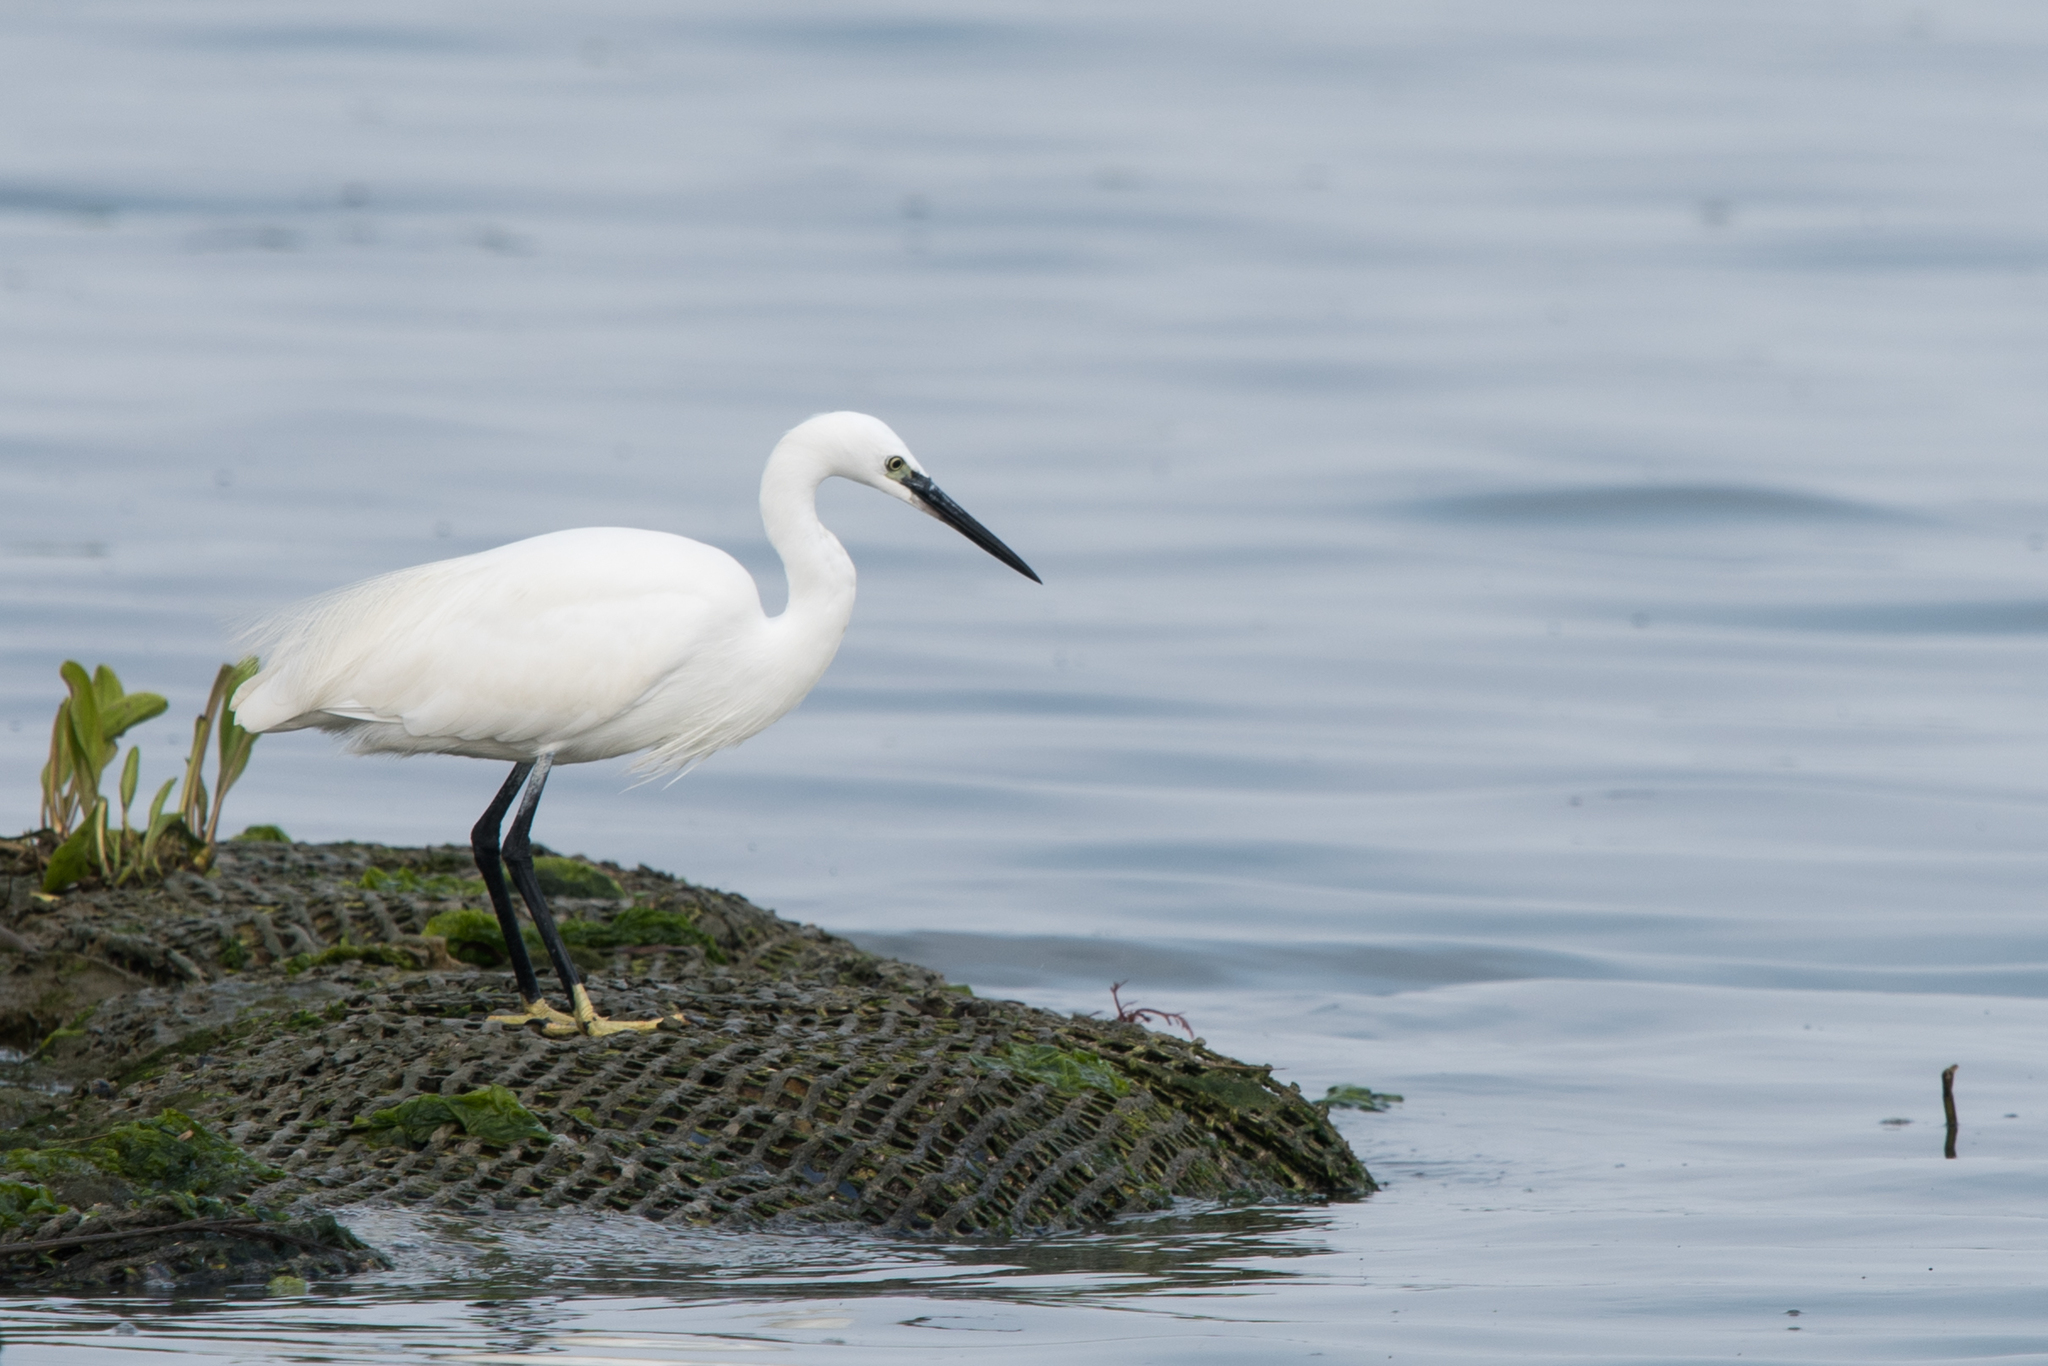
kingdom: Animalia
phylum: Chordata
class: Aves
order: Pelecaniformes
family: Ardeidae
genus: Egretta
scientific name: Egretta garzetta
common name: Little egret
